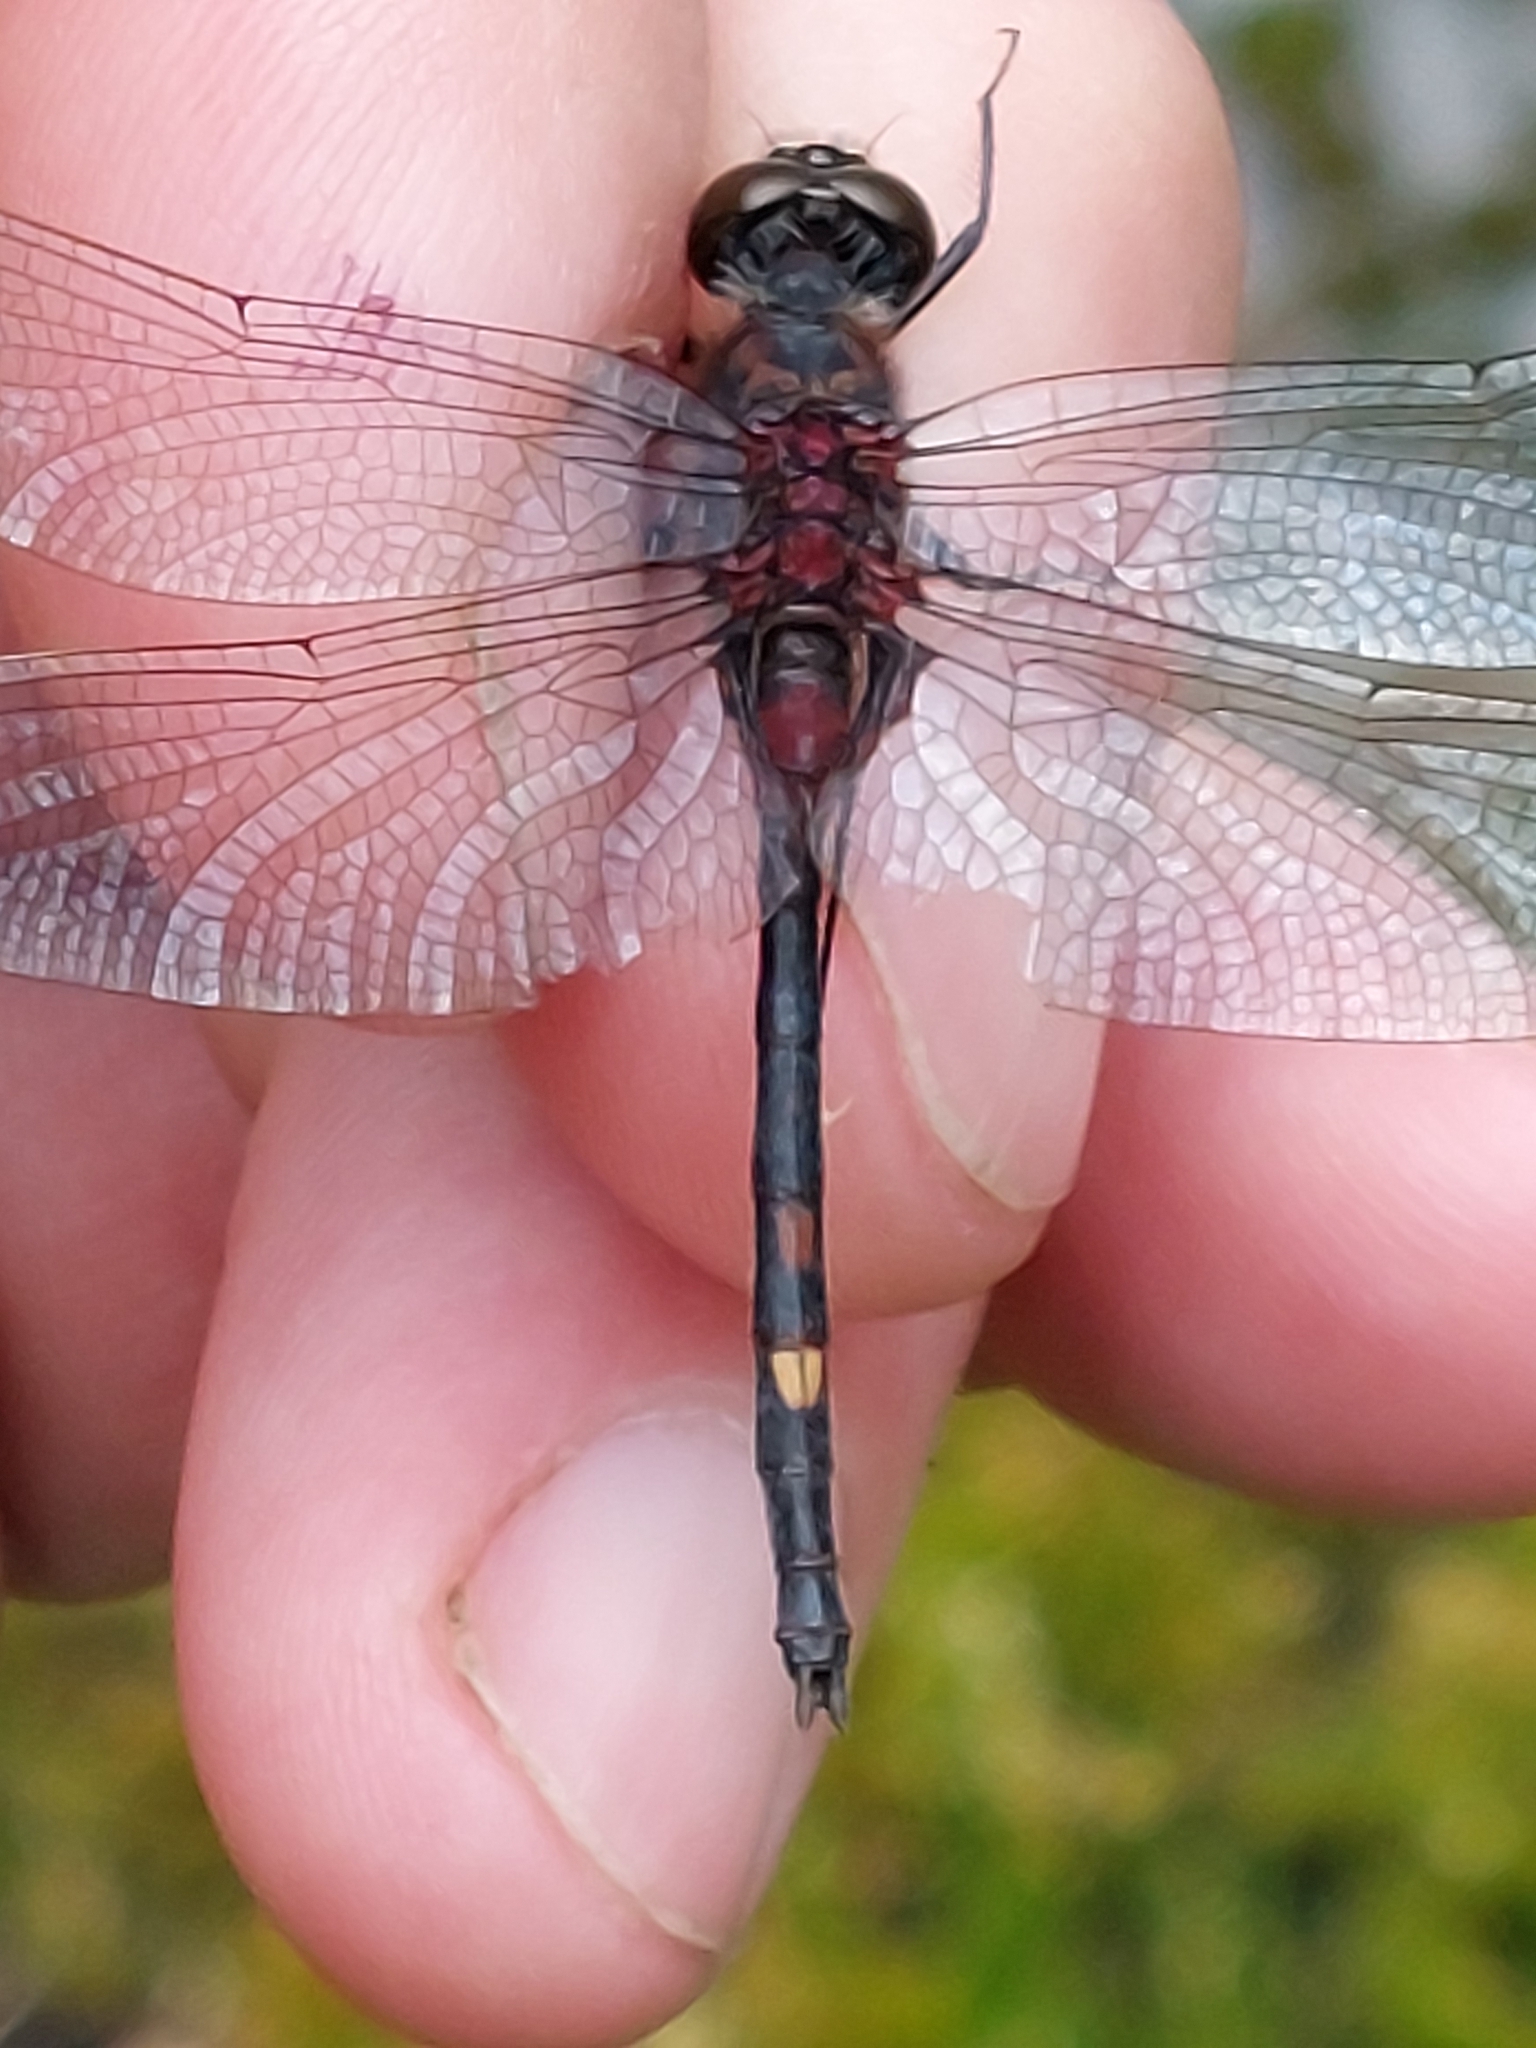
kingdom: Animalia
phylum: Arthropoda
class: Insecta
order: Odonata
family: Libellulidae
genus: Leucorrhinia
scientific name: Leucorrhinia dubia
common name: White-faced darter
